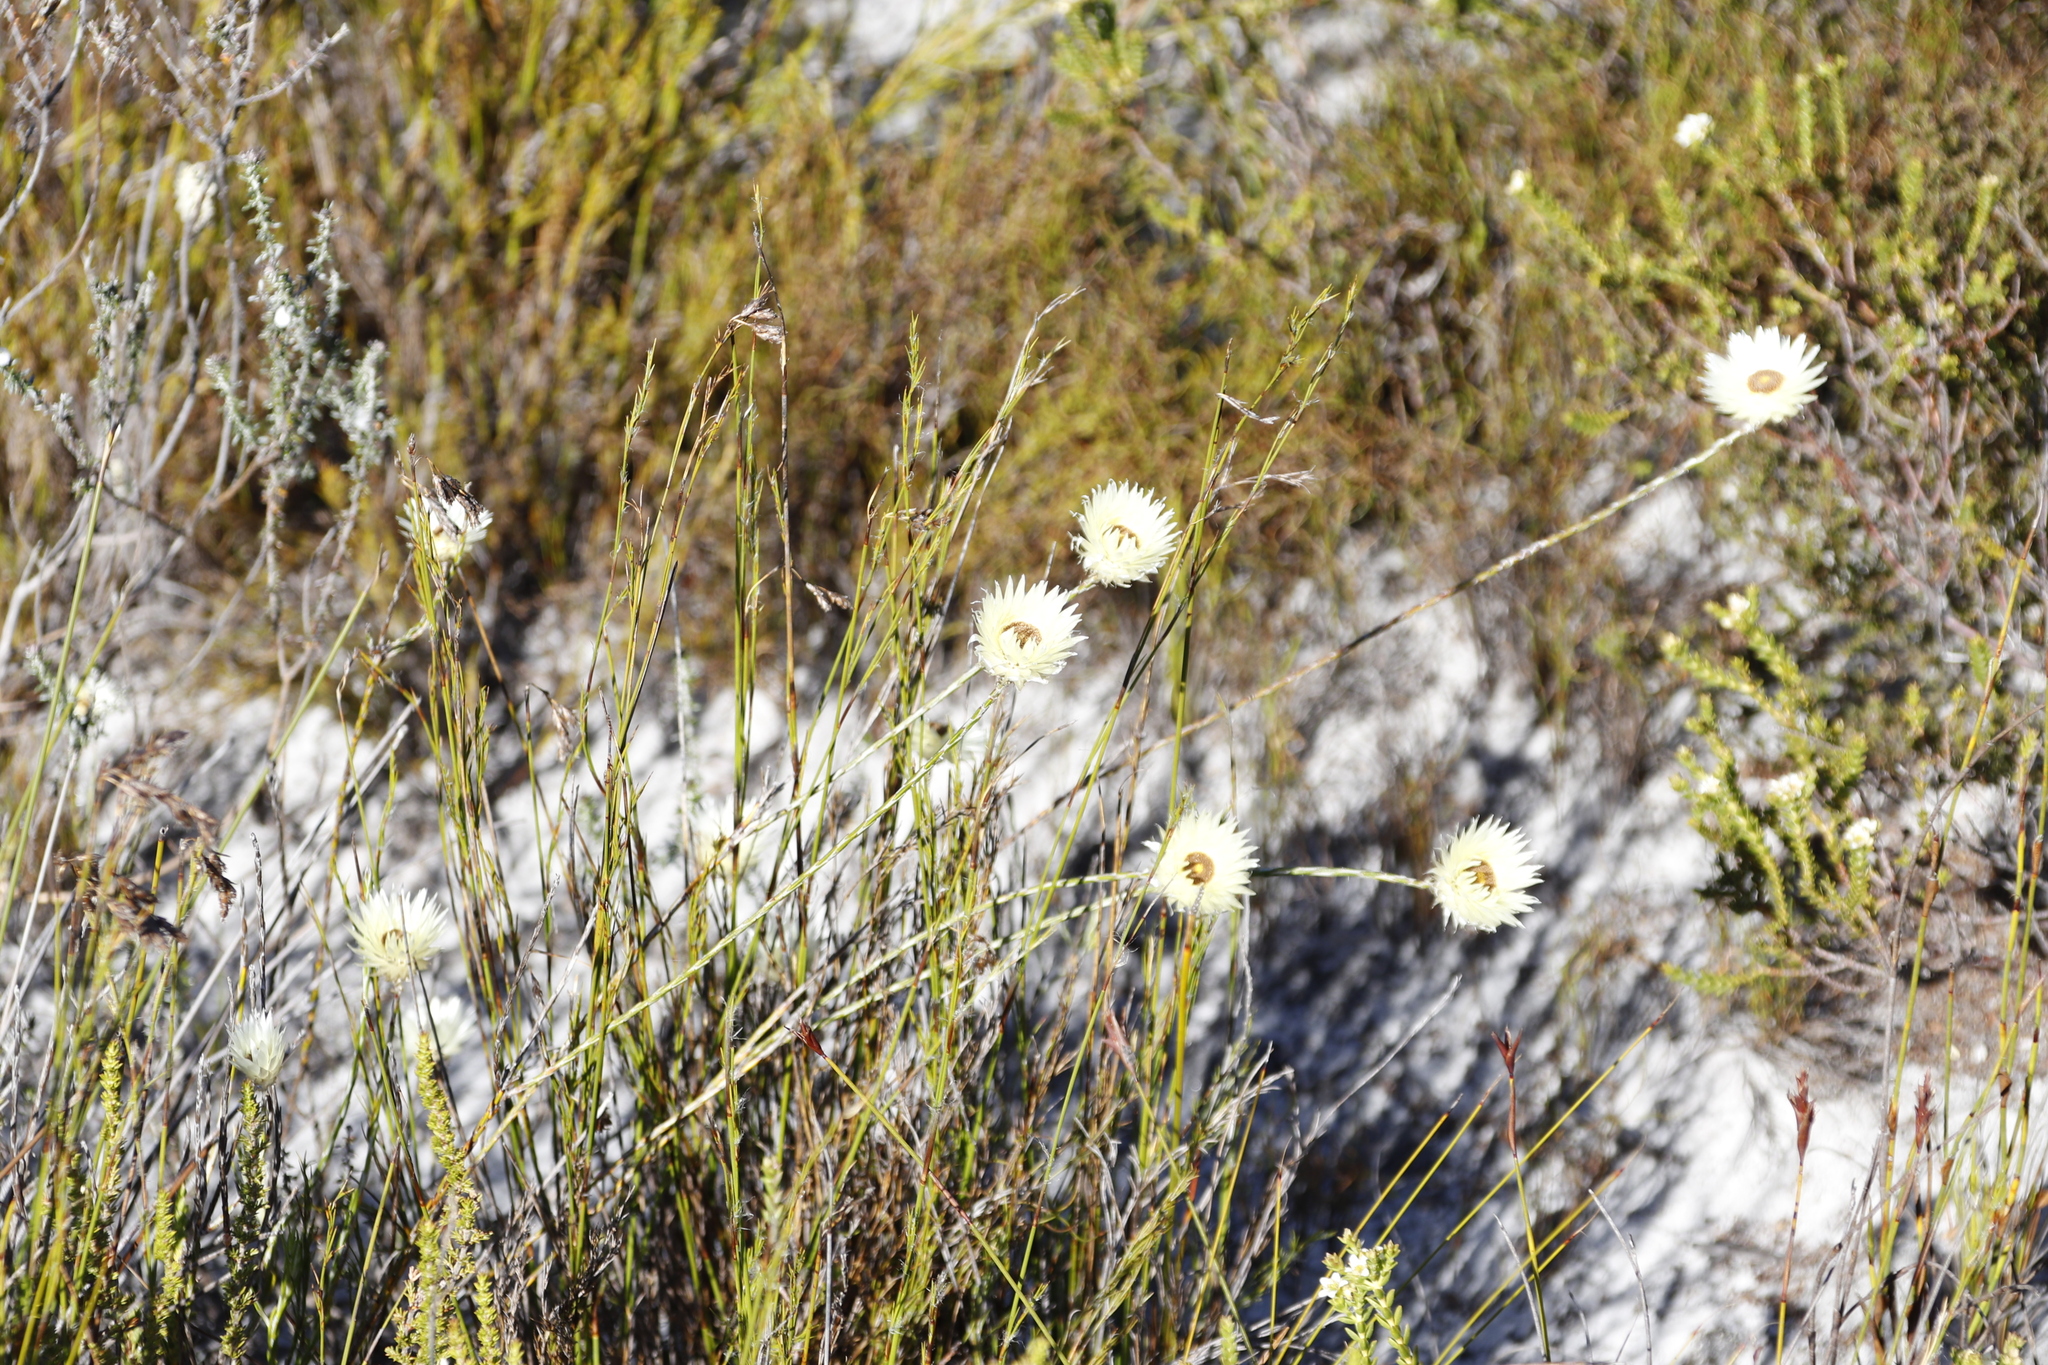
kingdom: Plantae
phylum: Tracheophyta
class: Magnoliopsida
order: Asterales
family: Asteraceae
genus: Edmondia
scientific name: Edmondia sesamoides
